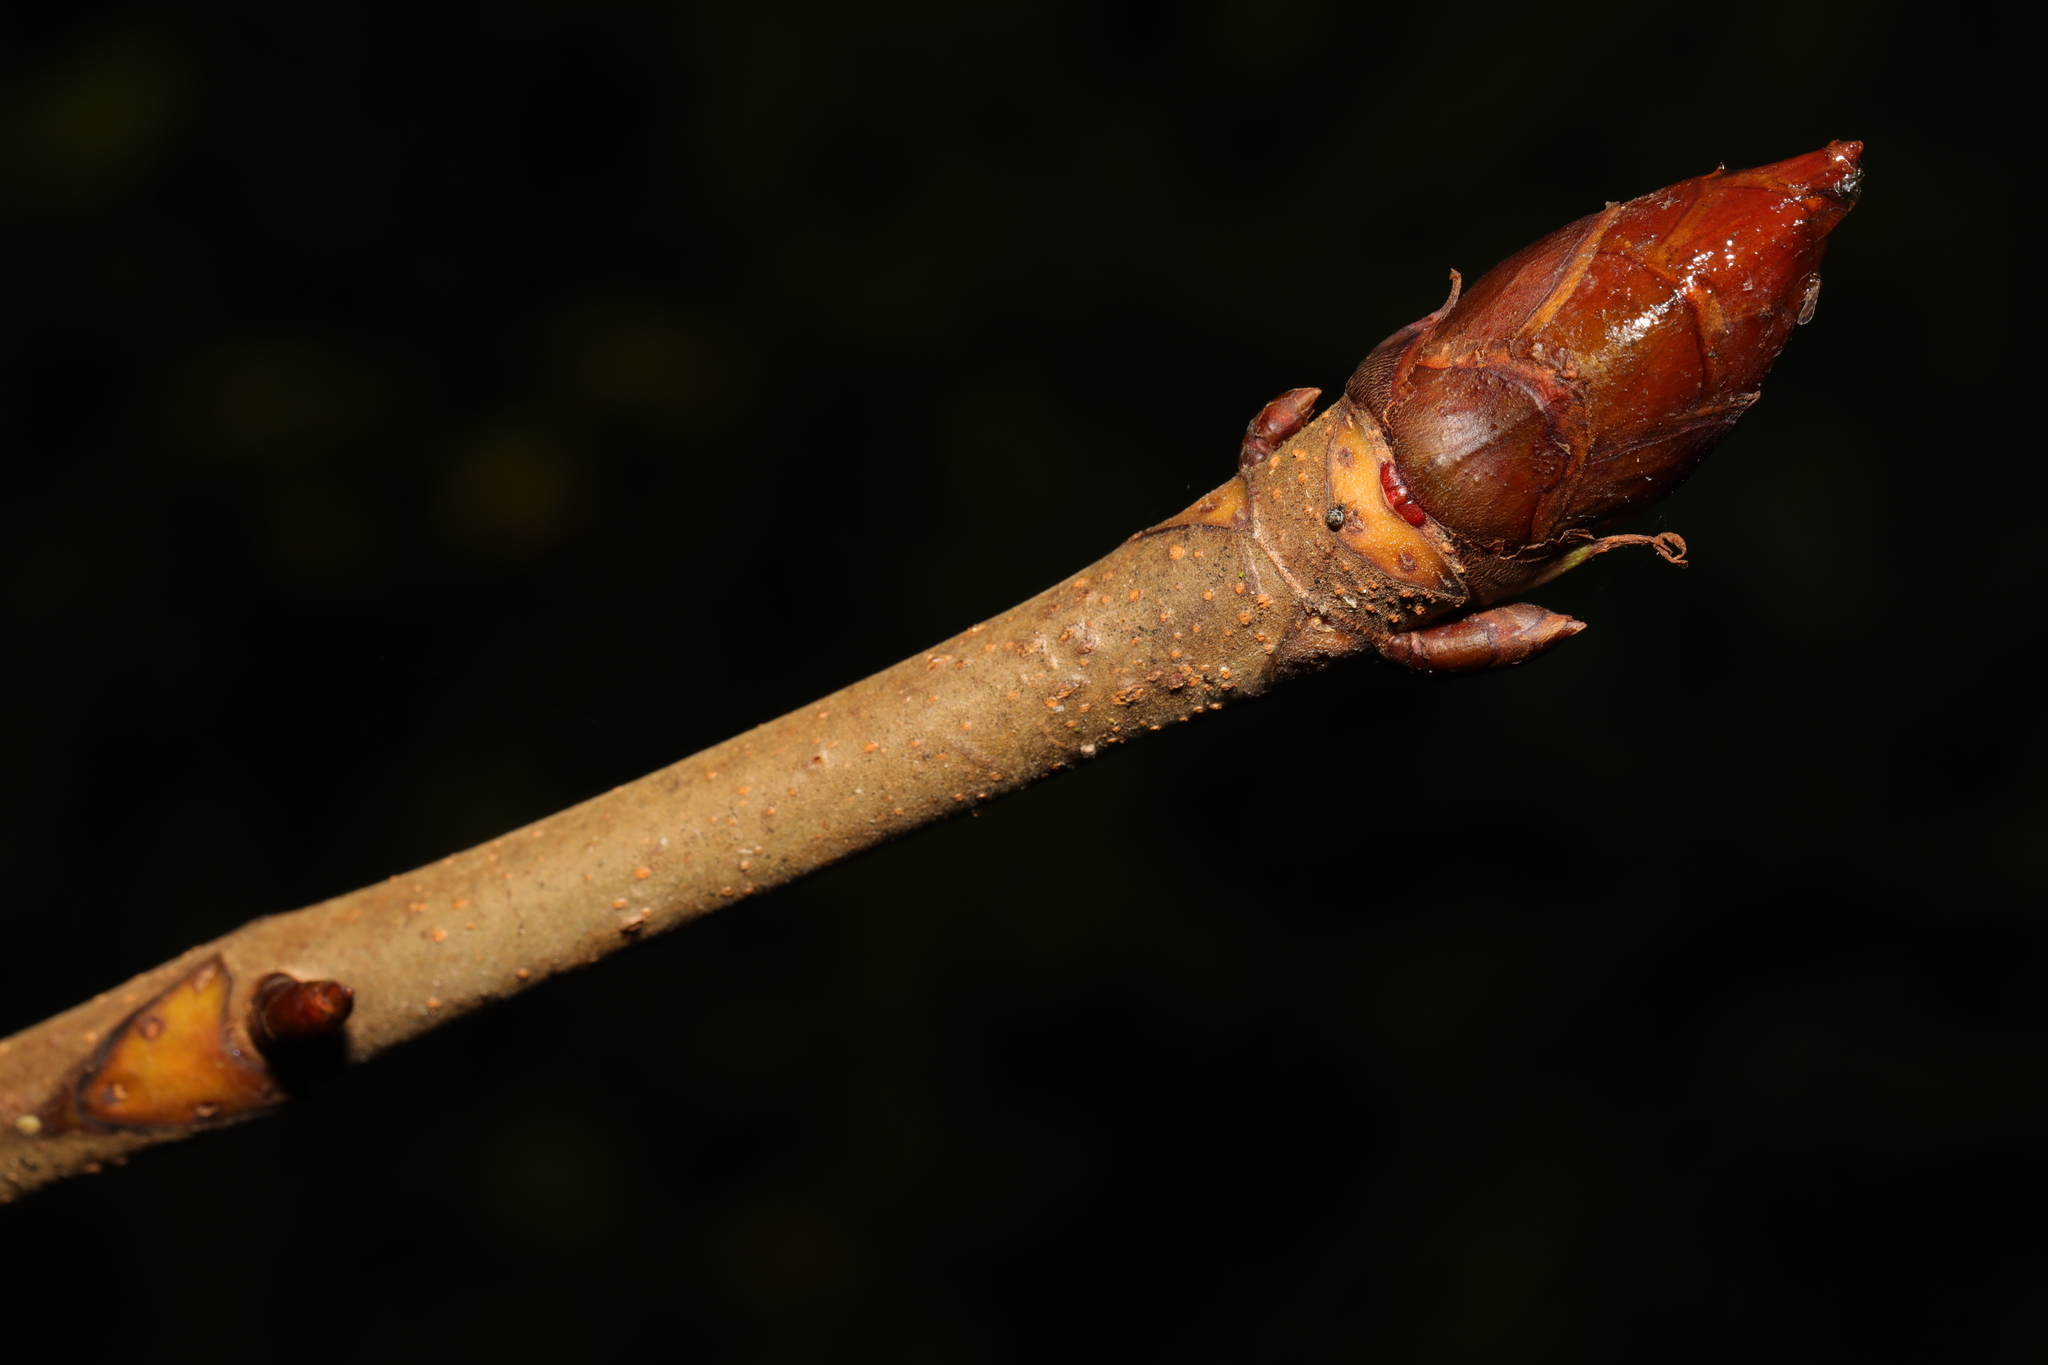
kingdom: Plantae
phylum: Tracheophyta
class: Magnoliopsida
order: Sapindales
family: Sapindaceae
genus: Aesculus
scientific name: Aesculus hippocastanum
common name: Horse-chestnut
